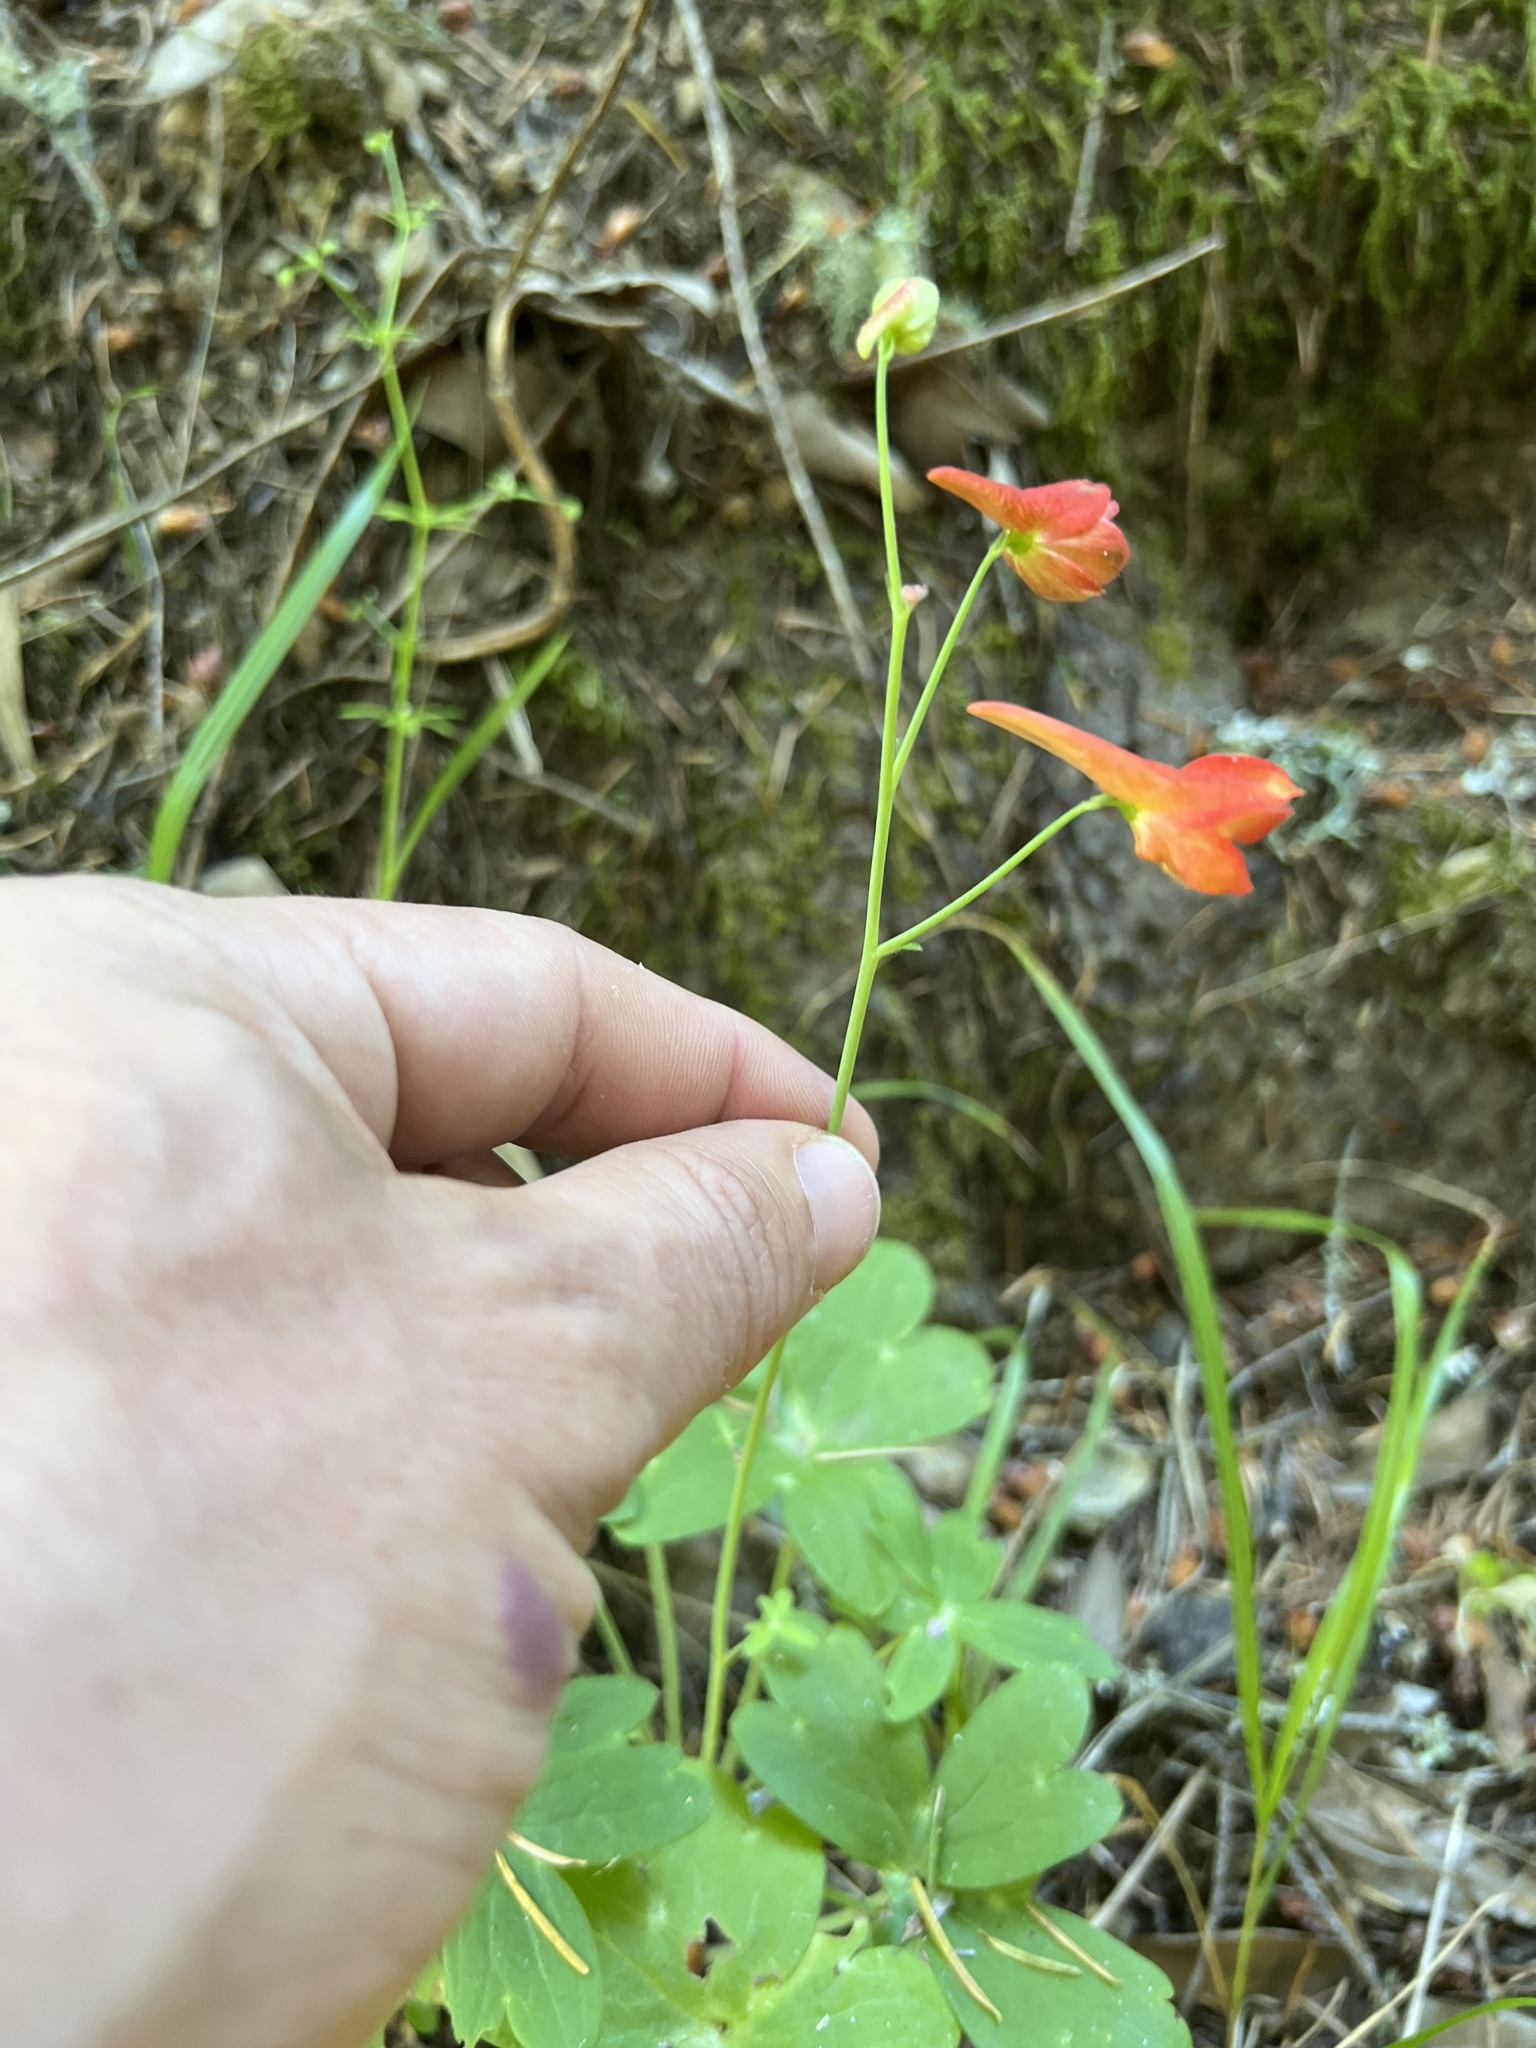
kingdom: Plantae
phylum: Tracheophyta
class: Magnoliopsida
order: Ranunculales
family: Ranunculaceae
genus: Delphinium
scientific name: Delphinium nudicaule
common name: Red larkspur
